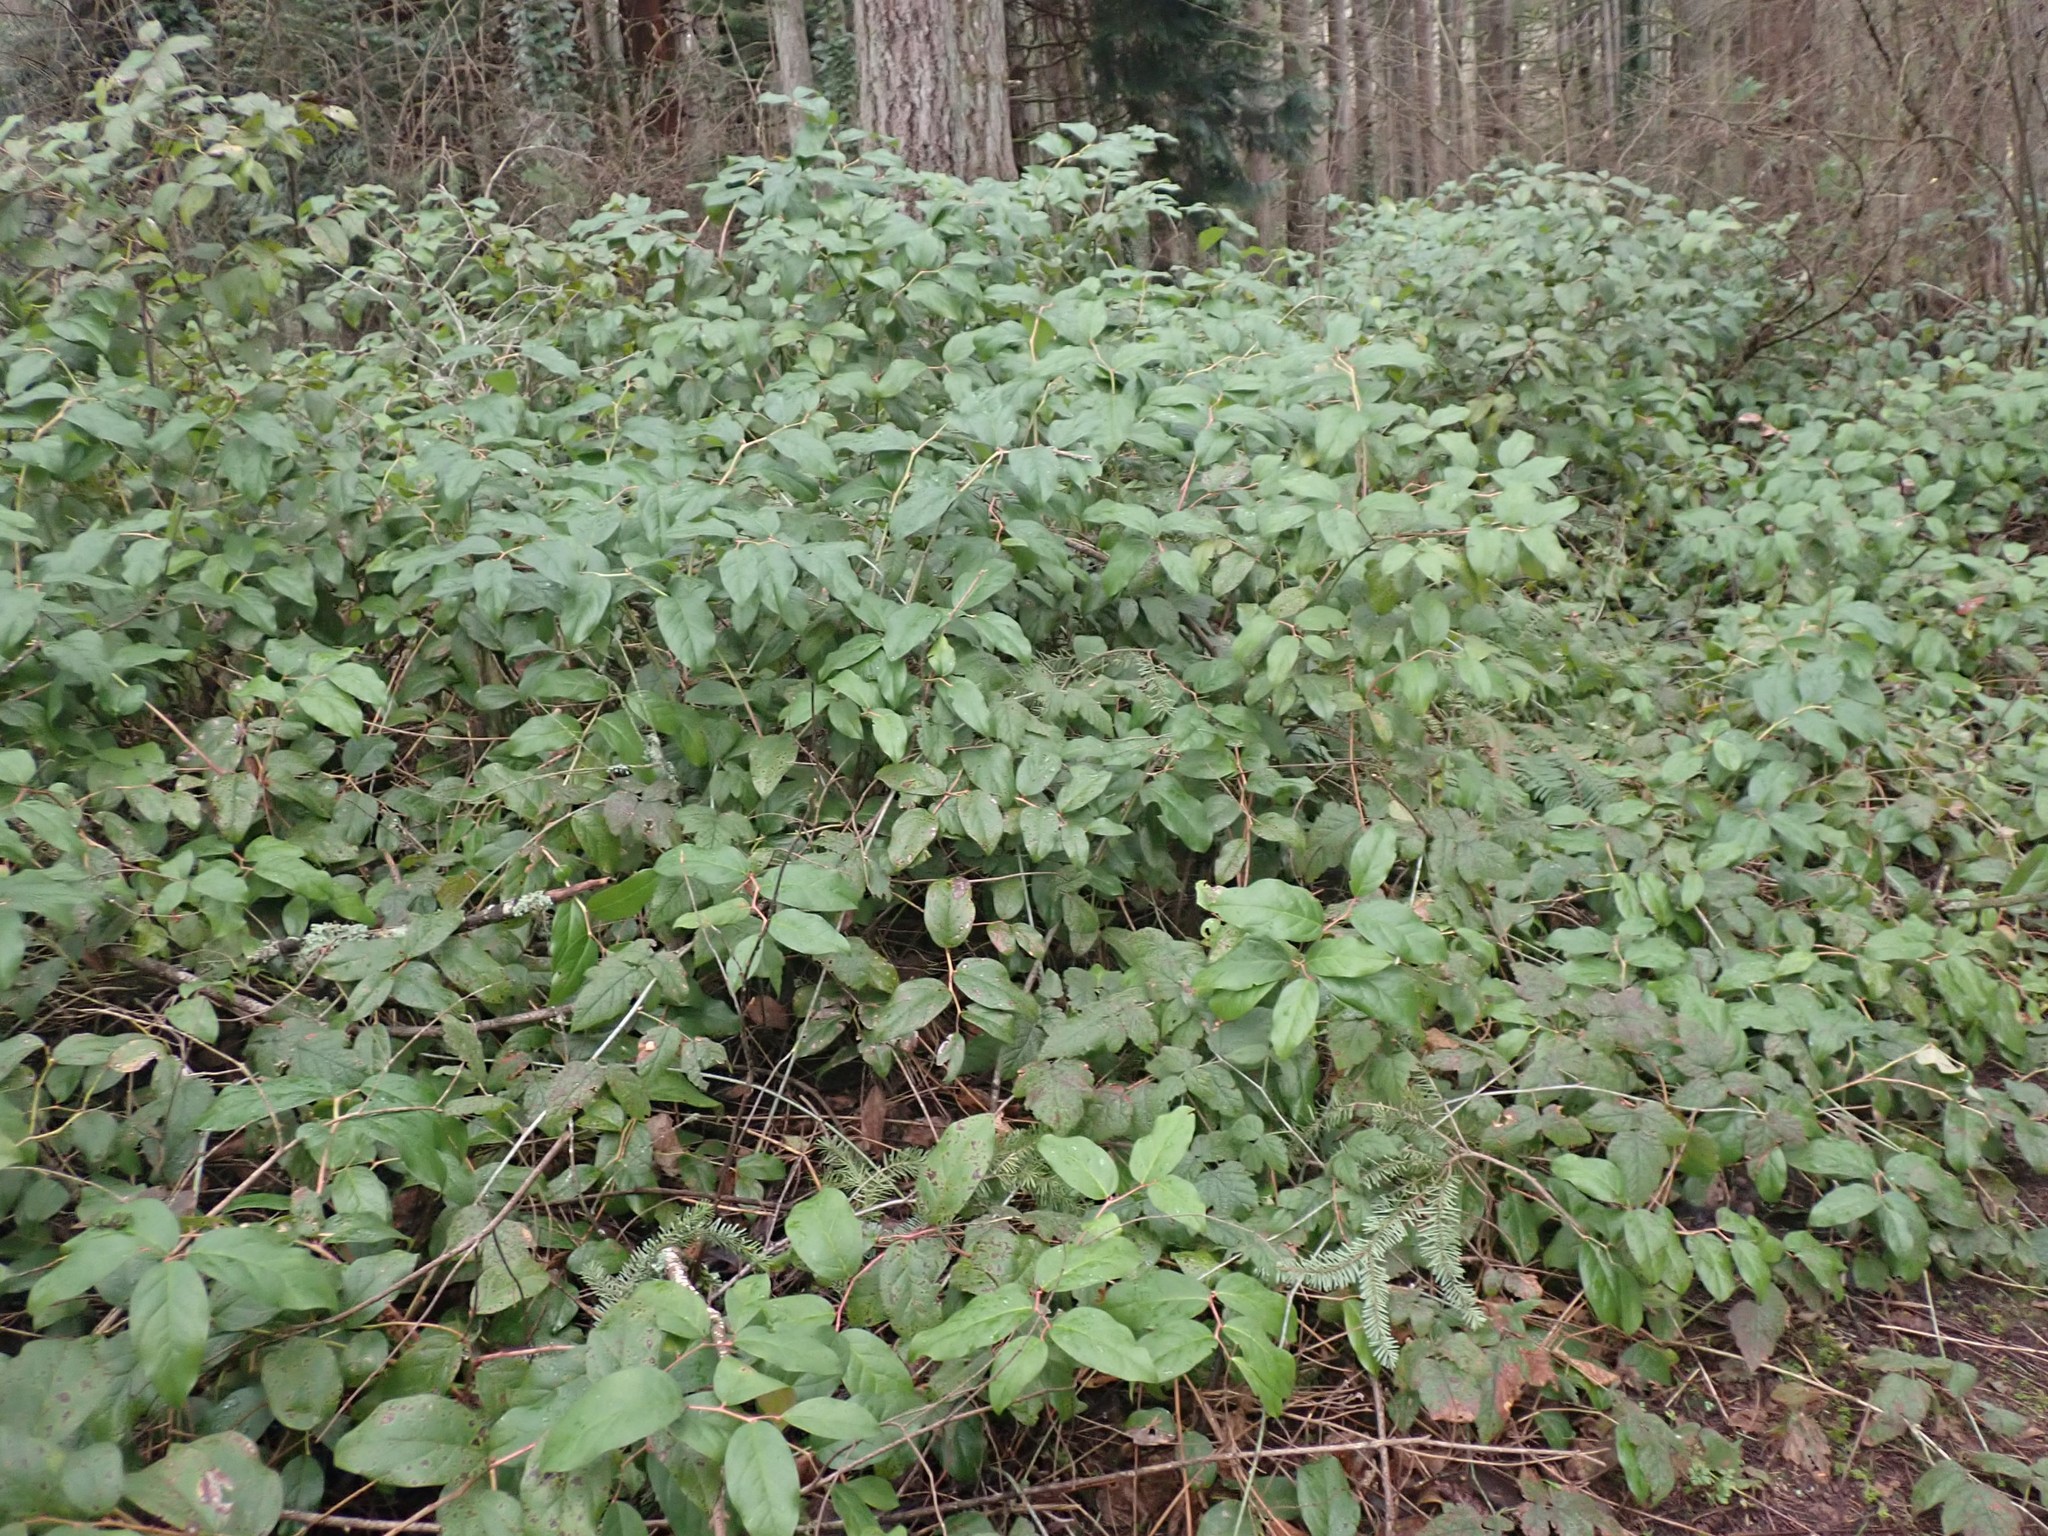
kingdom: Plantae
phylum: Tracheophyta
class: Magnoliopsida
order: Ericales
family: Ericaceae
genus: Gaultheria
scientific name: Gaultheria shallon
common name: Shallon
